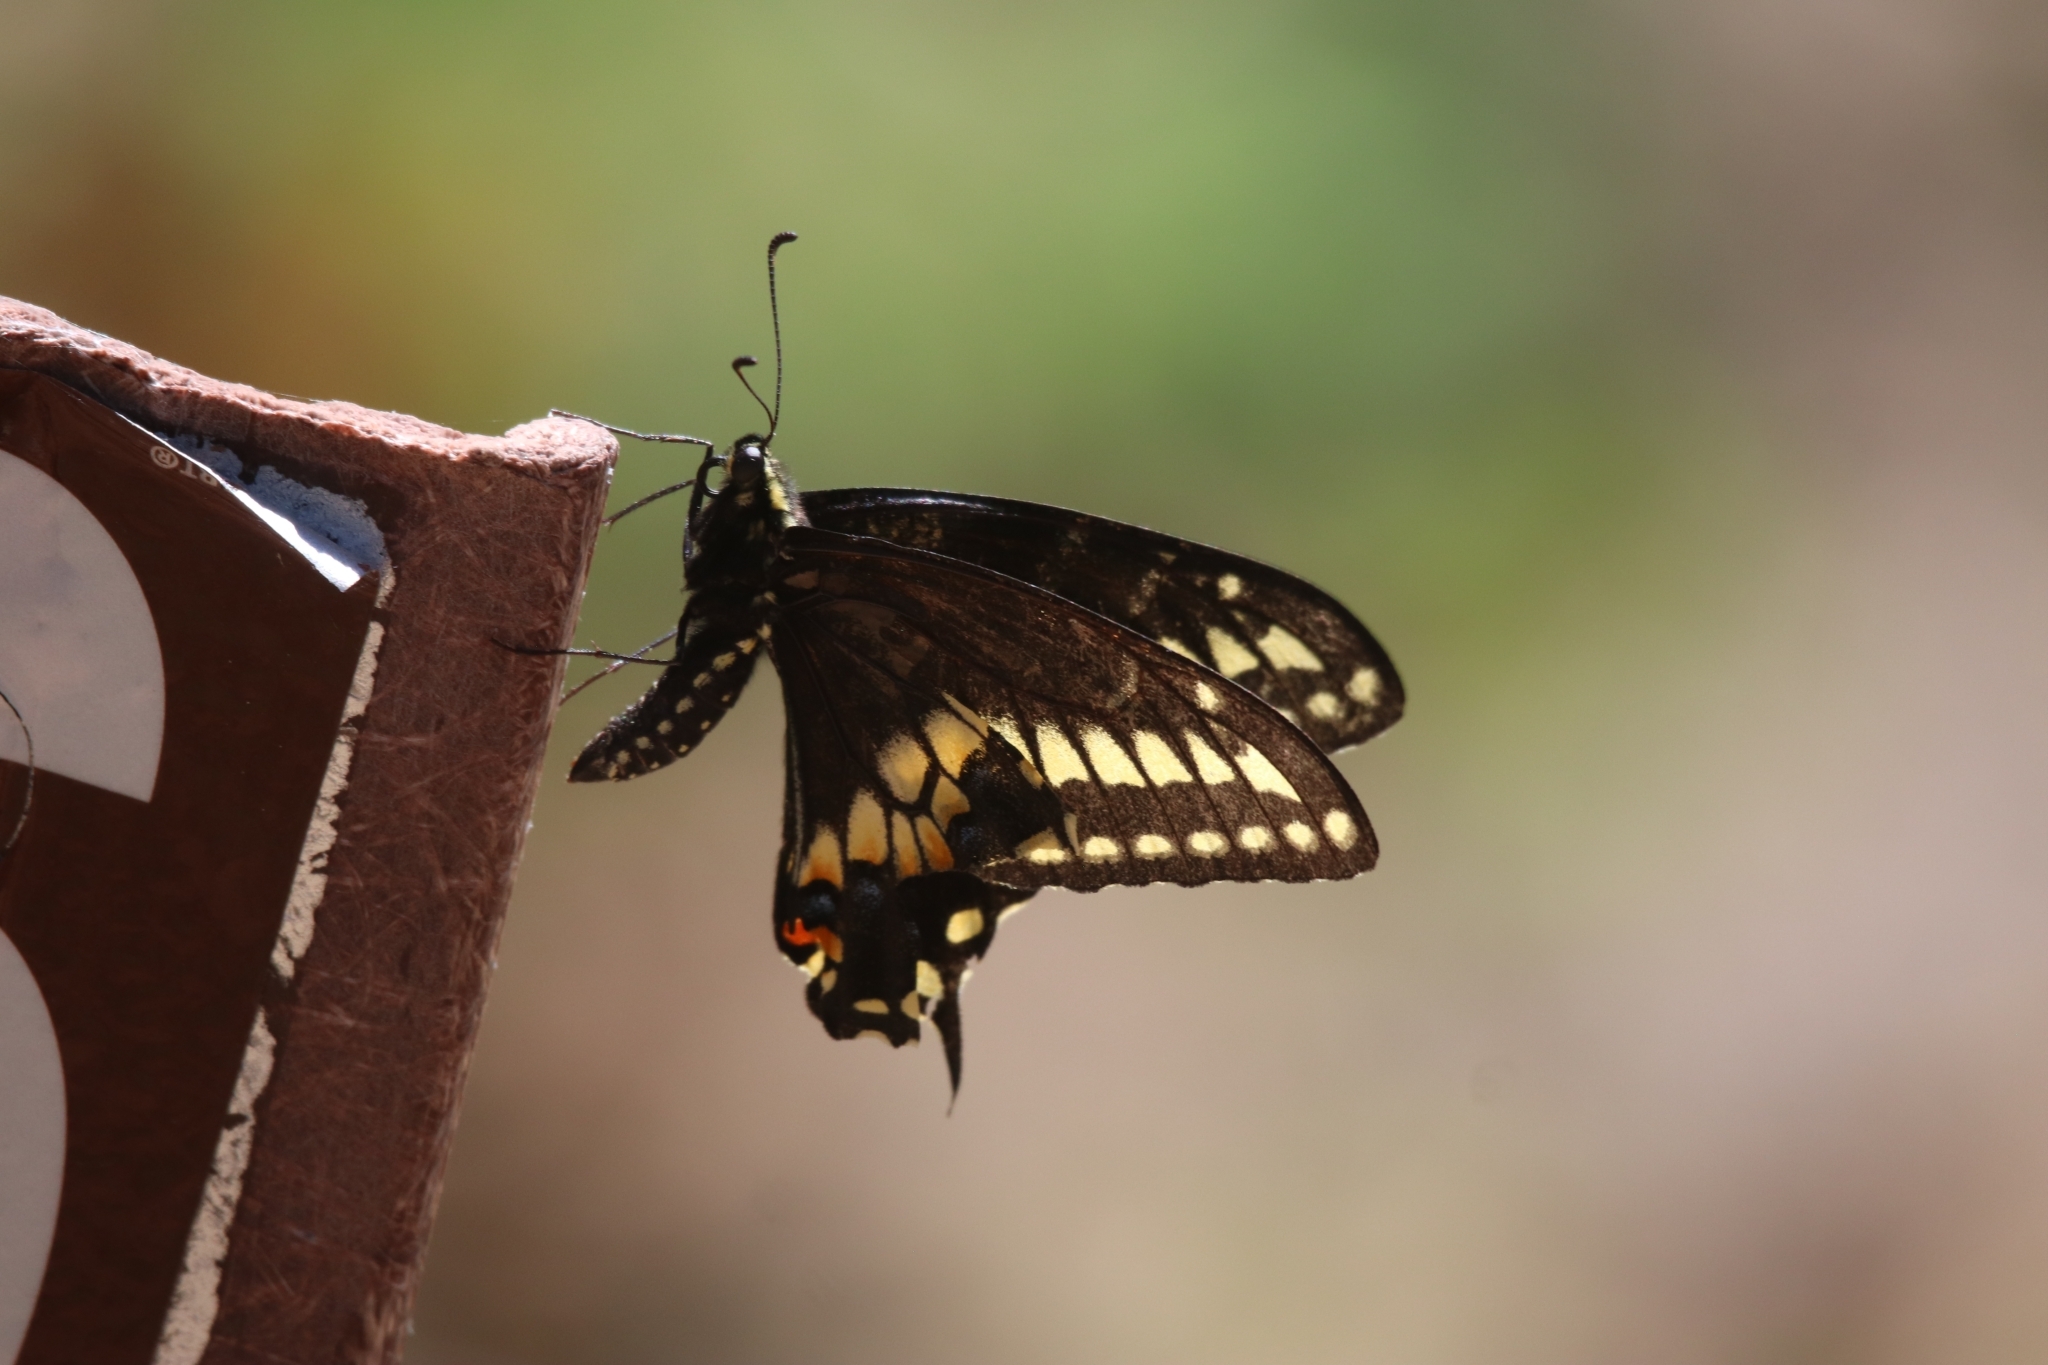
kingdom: Animalia
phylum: Arthropoda
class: Insecta
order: Lepidoptera
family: Papilionidae
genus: Papilio
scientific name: Papilio
